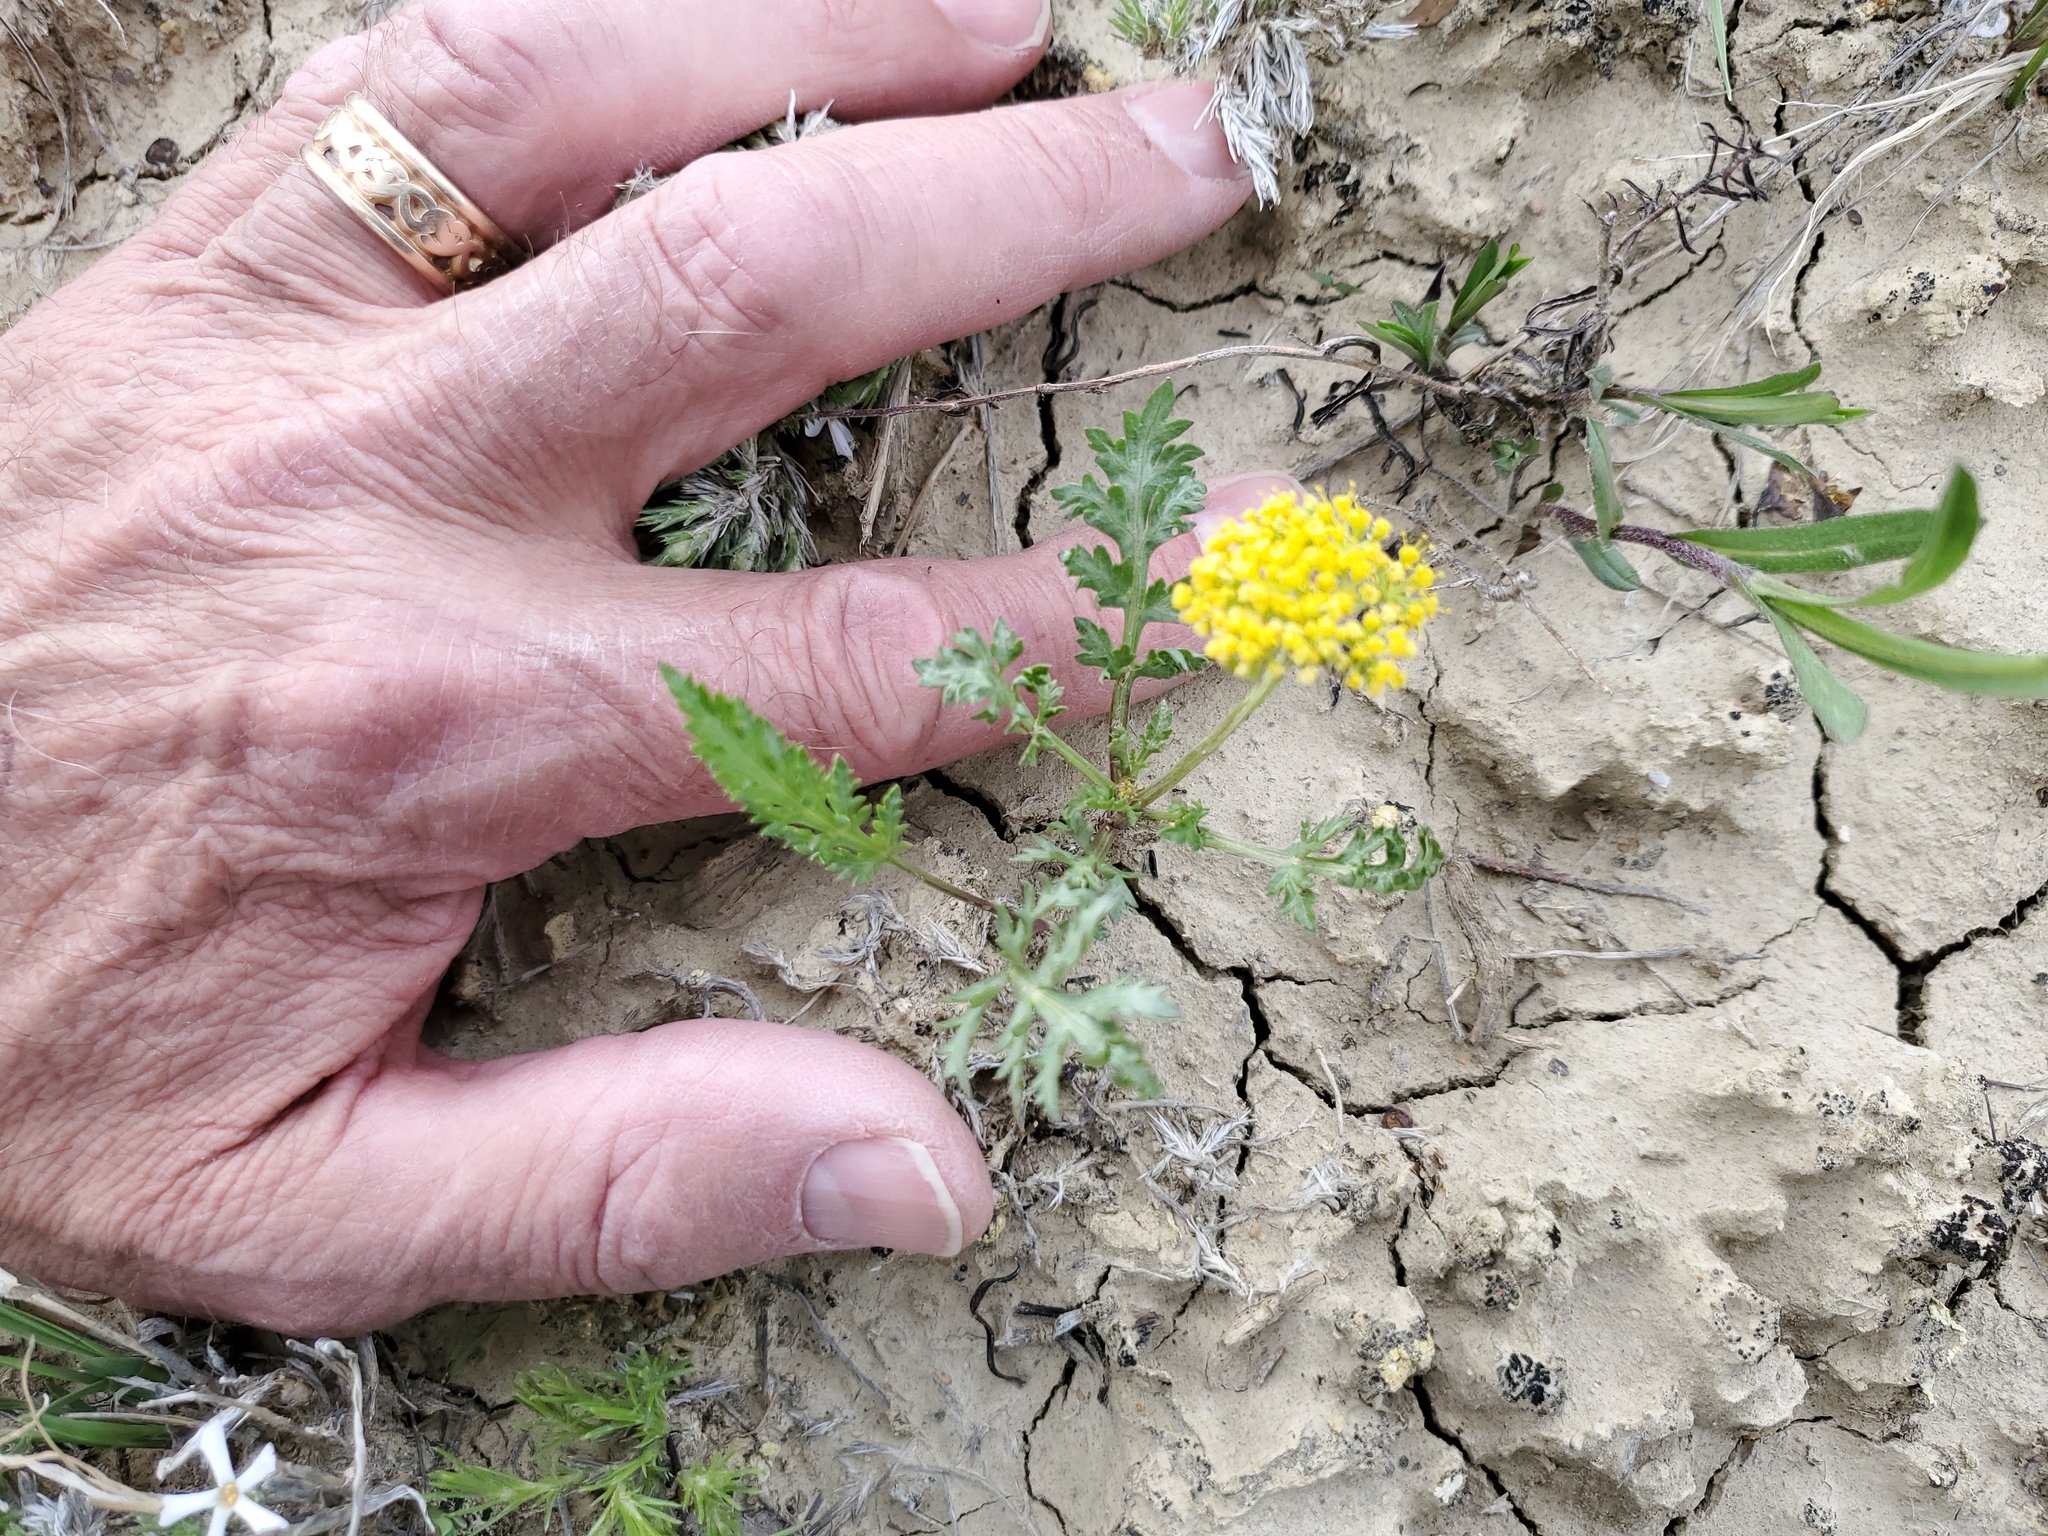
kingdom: Plantae
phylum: Tracheophyta
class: Magnoliopsida
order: Apiales
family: Apiaceae
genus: Musineon
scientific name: Musineon divaricatum
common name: Plains musineon
